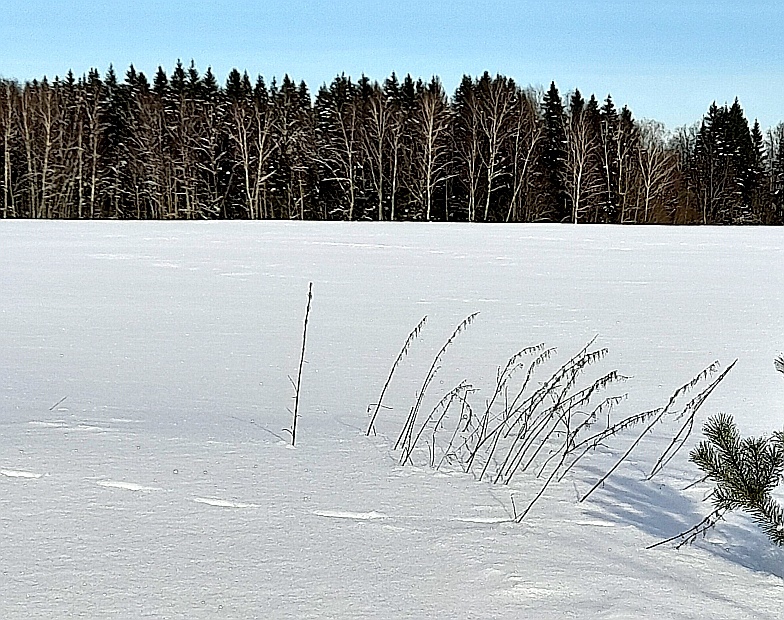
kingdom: Plantae
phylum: Tracheophyta
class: Magnoliopsida
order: Rosales
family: Urticaceae
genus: Urtica
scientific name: Urtica dioica
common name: Common nettle
